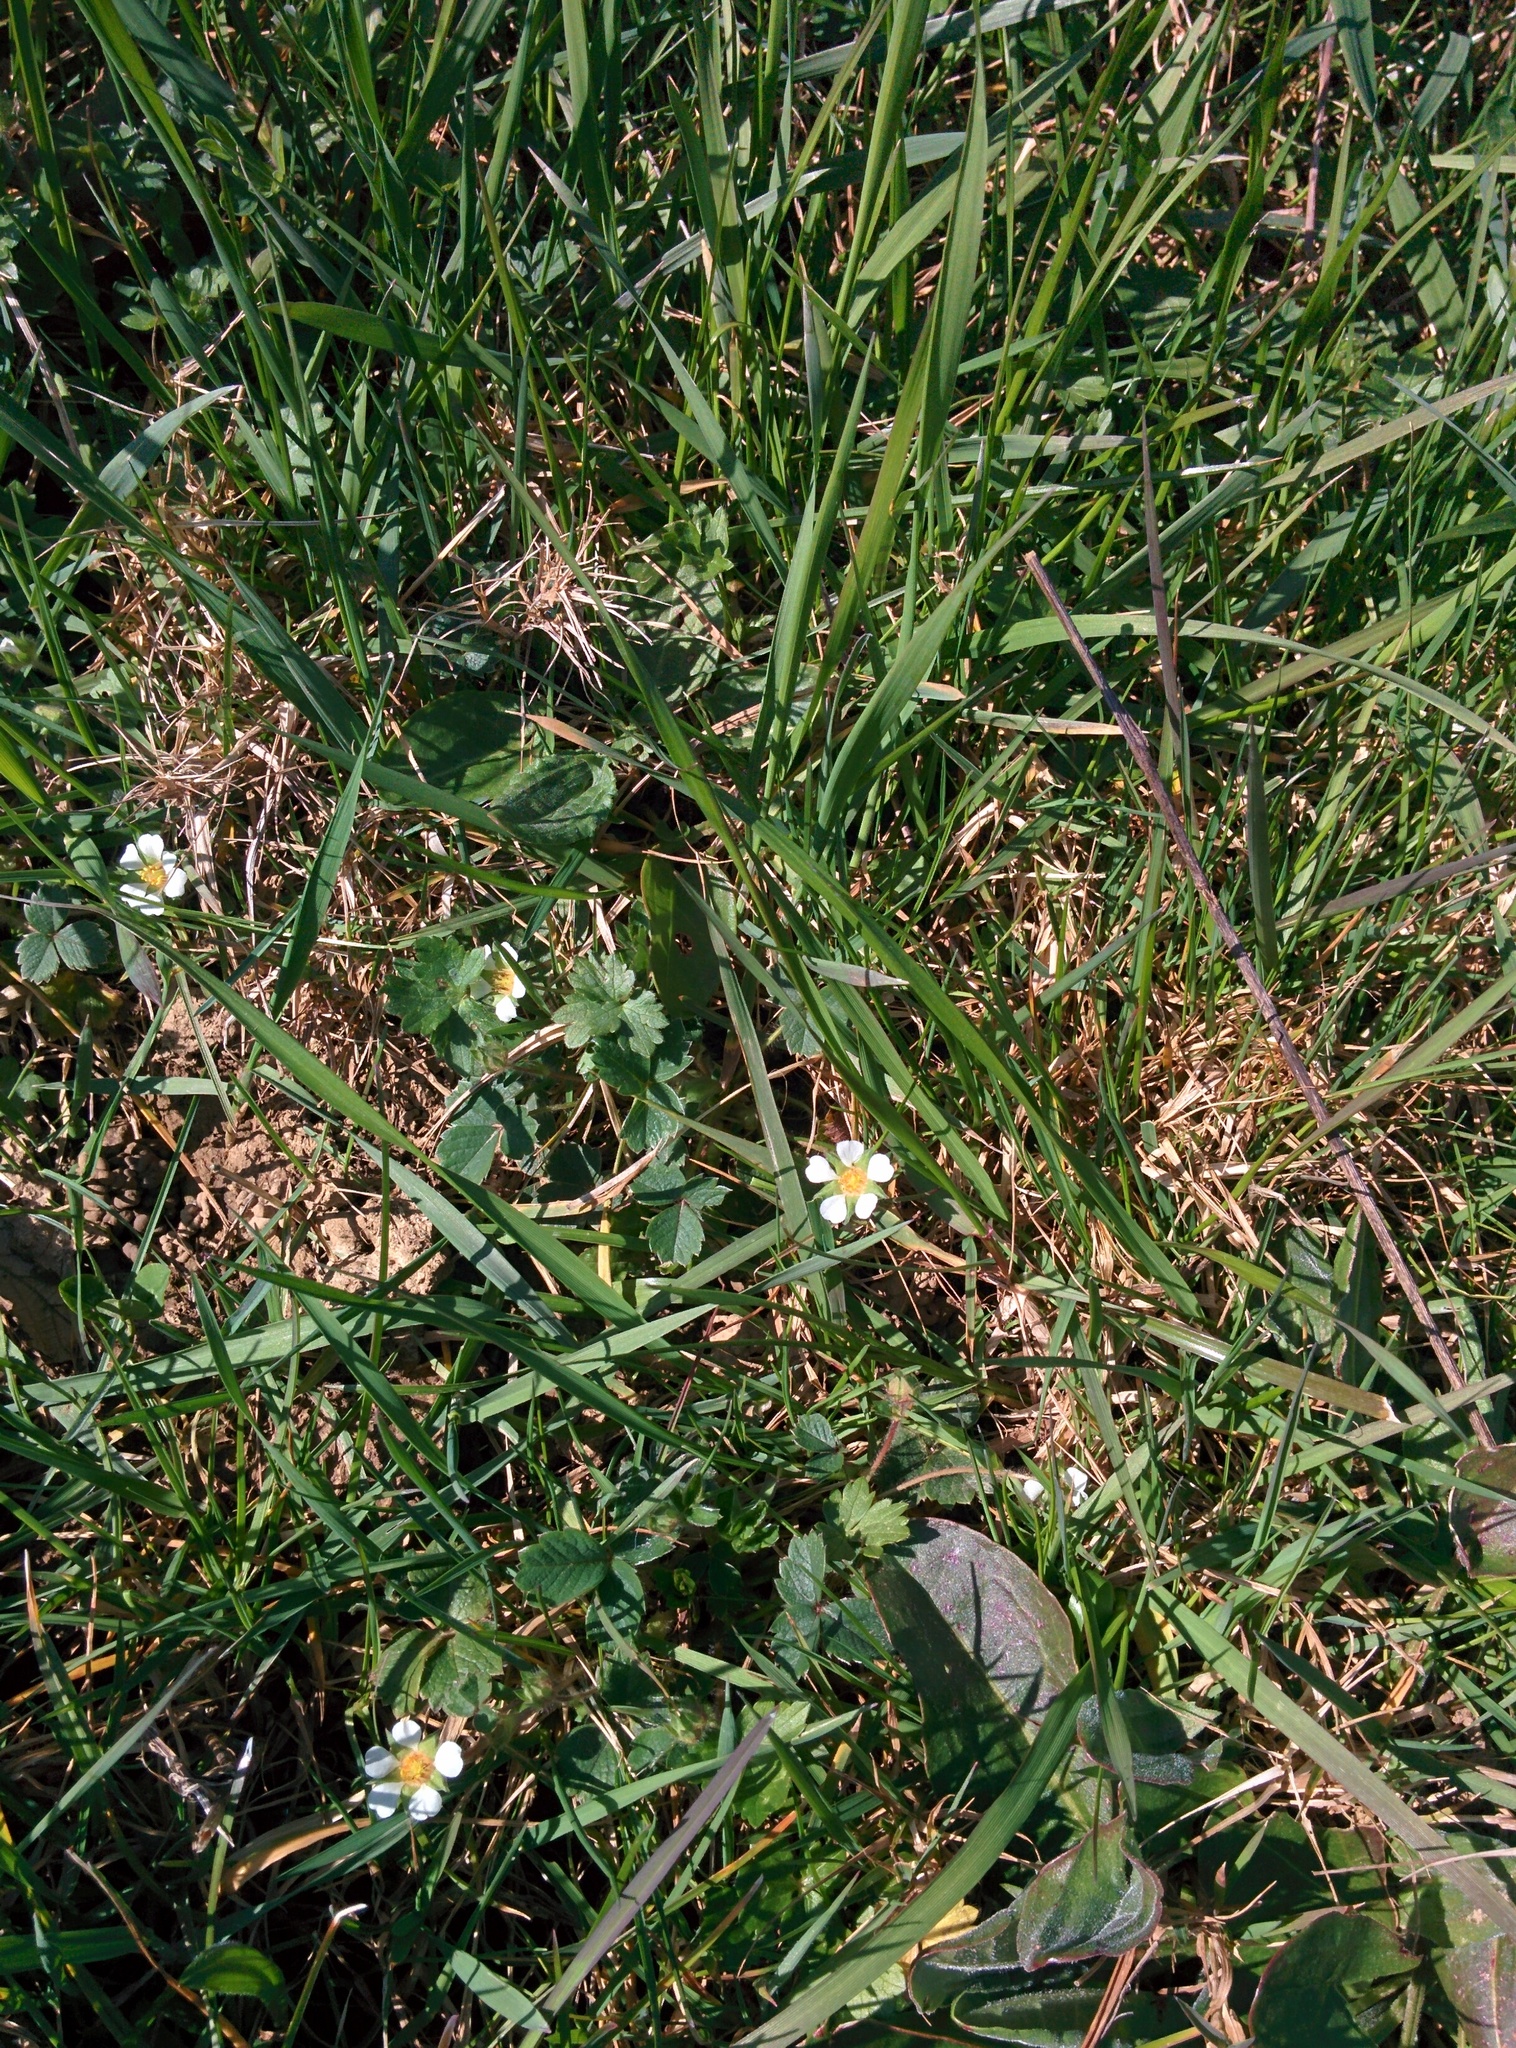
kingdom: Plantae
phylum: Tracheophyta
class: Magnoliopsida
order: Rosales
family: Rosaceae
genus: Potentilla
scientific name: Potentilla sterilis
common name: Barren strawberry
